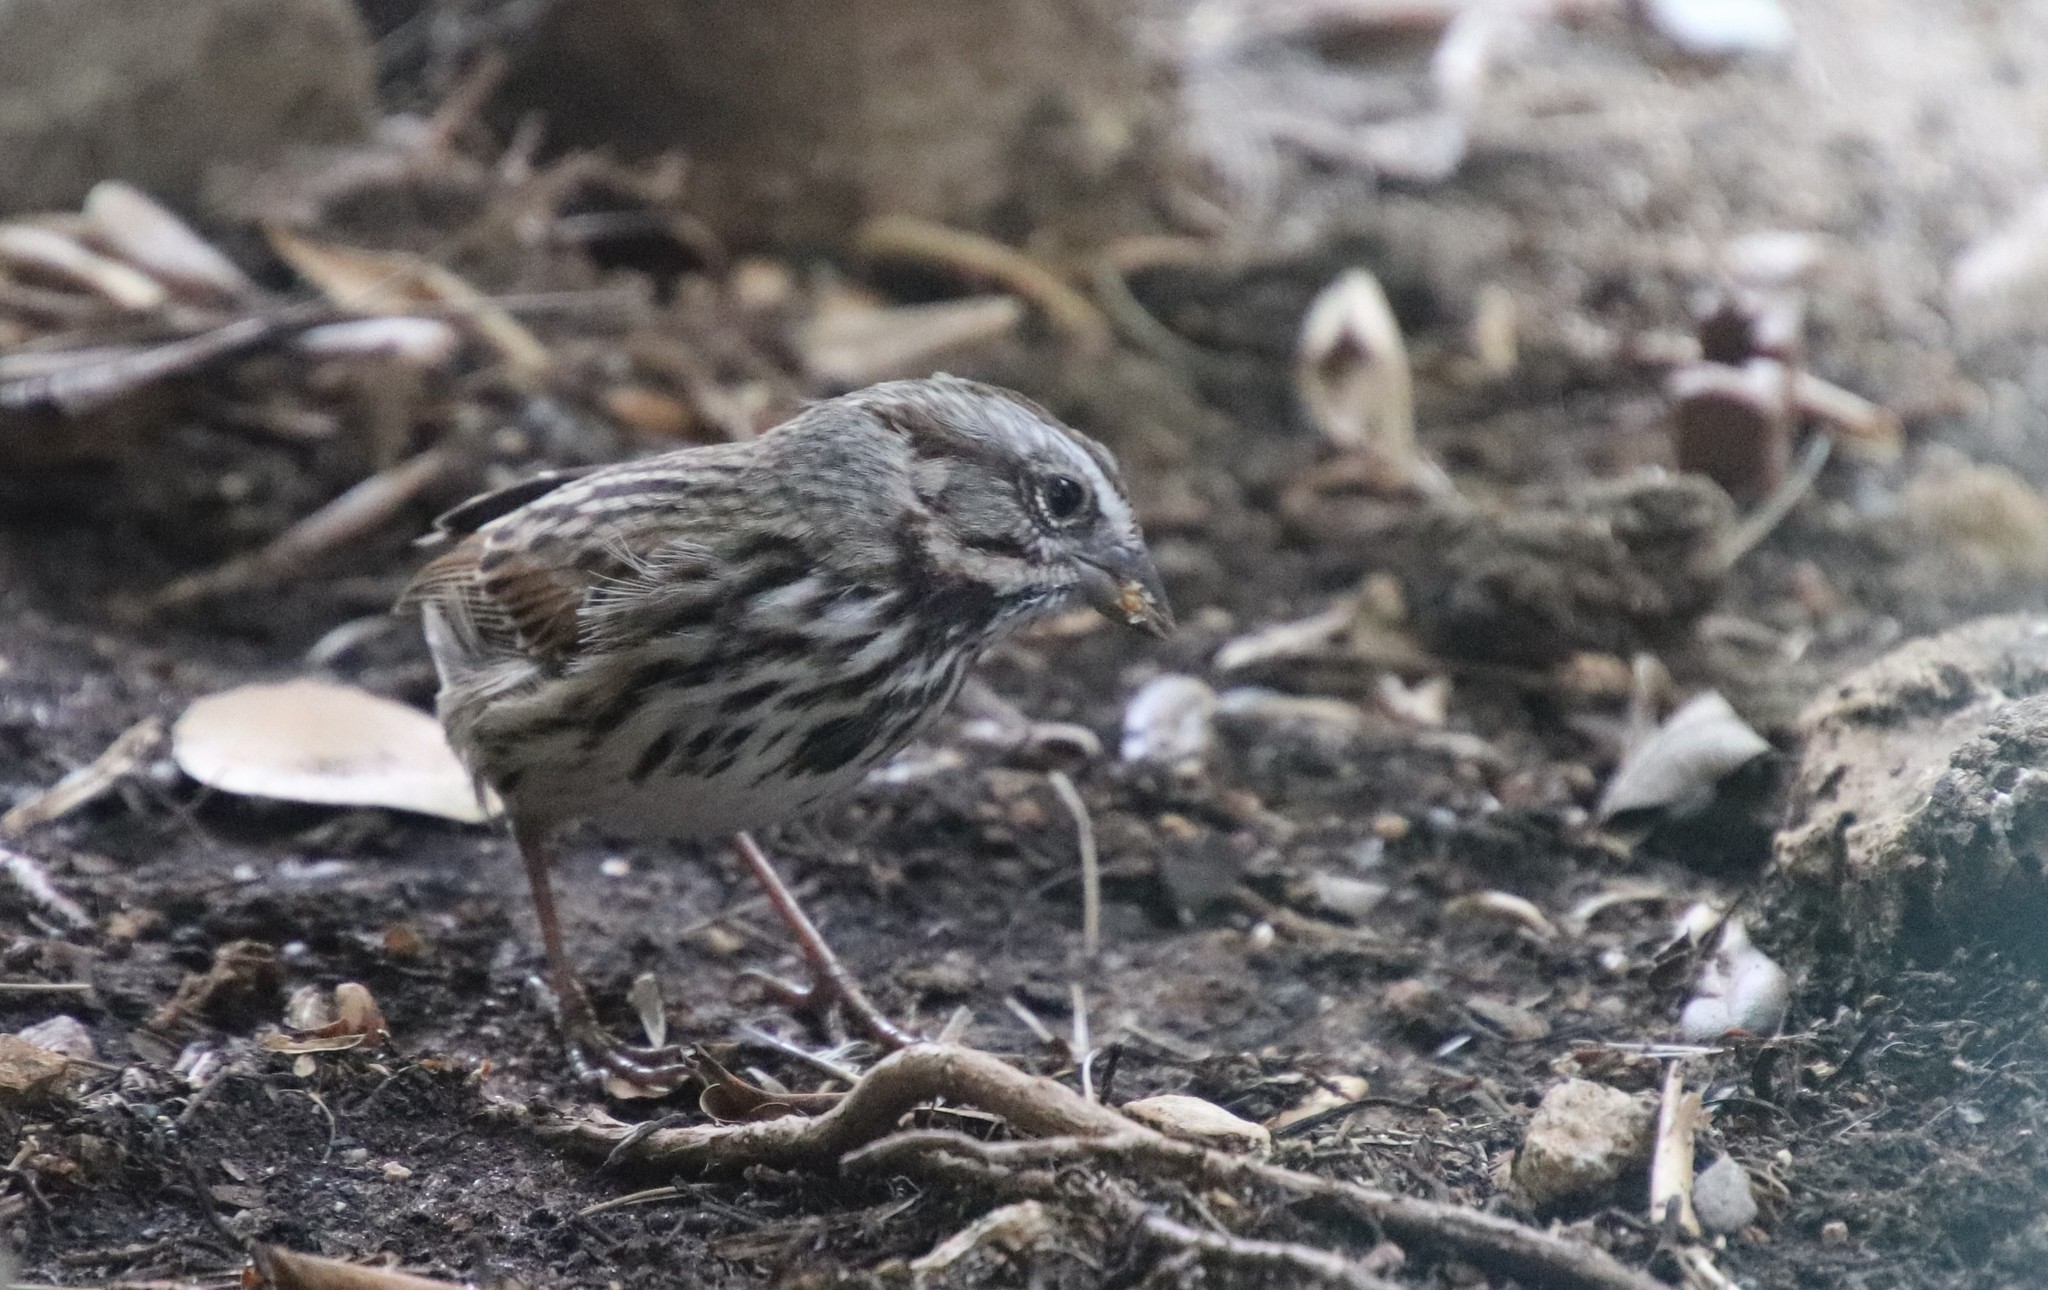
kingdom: Animalia
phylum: Chordata
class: Aves
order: Passeriformes
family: Passerellidae
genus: Melospiza
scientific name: Melospiza melodia
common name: Song sparrow
